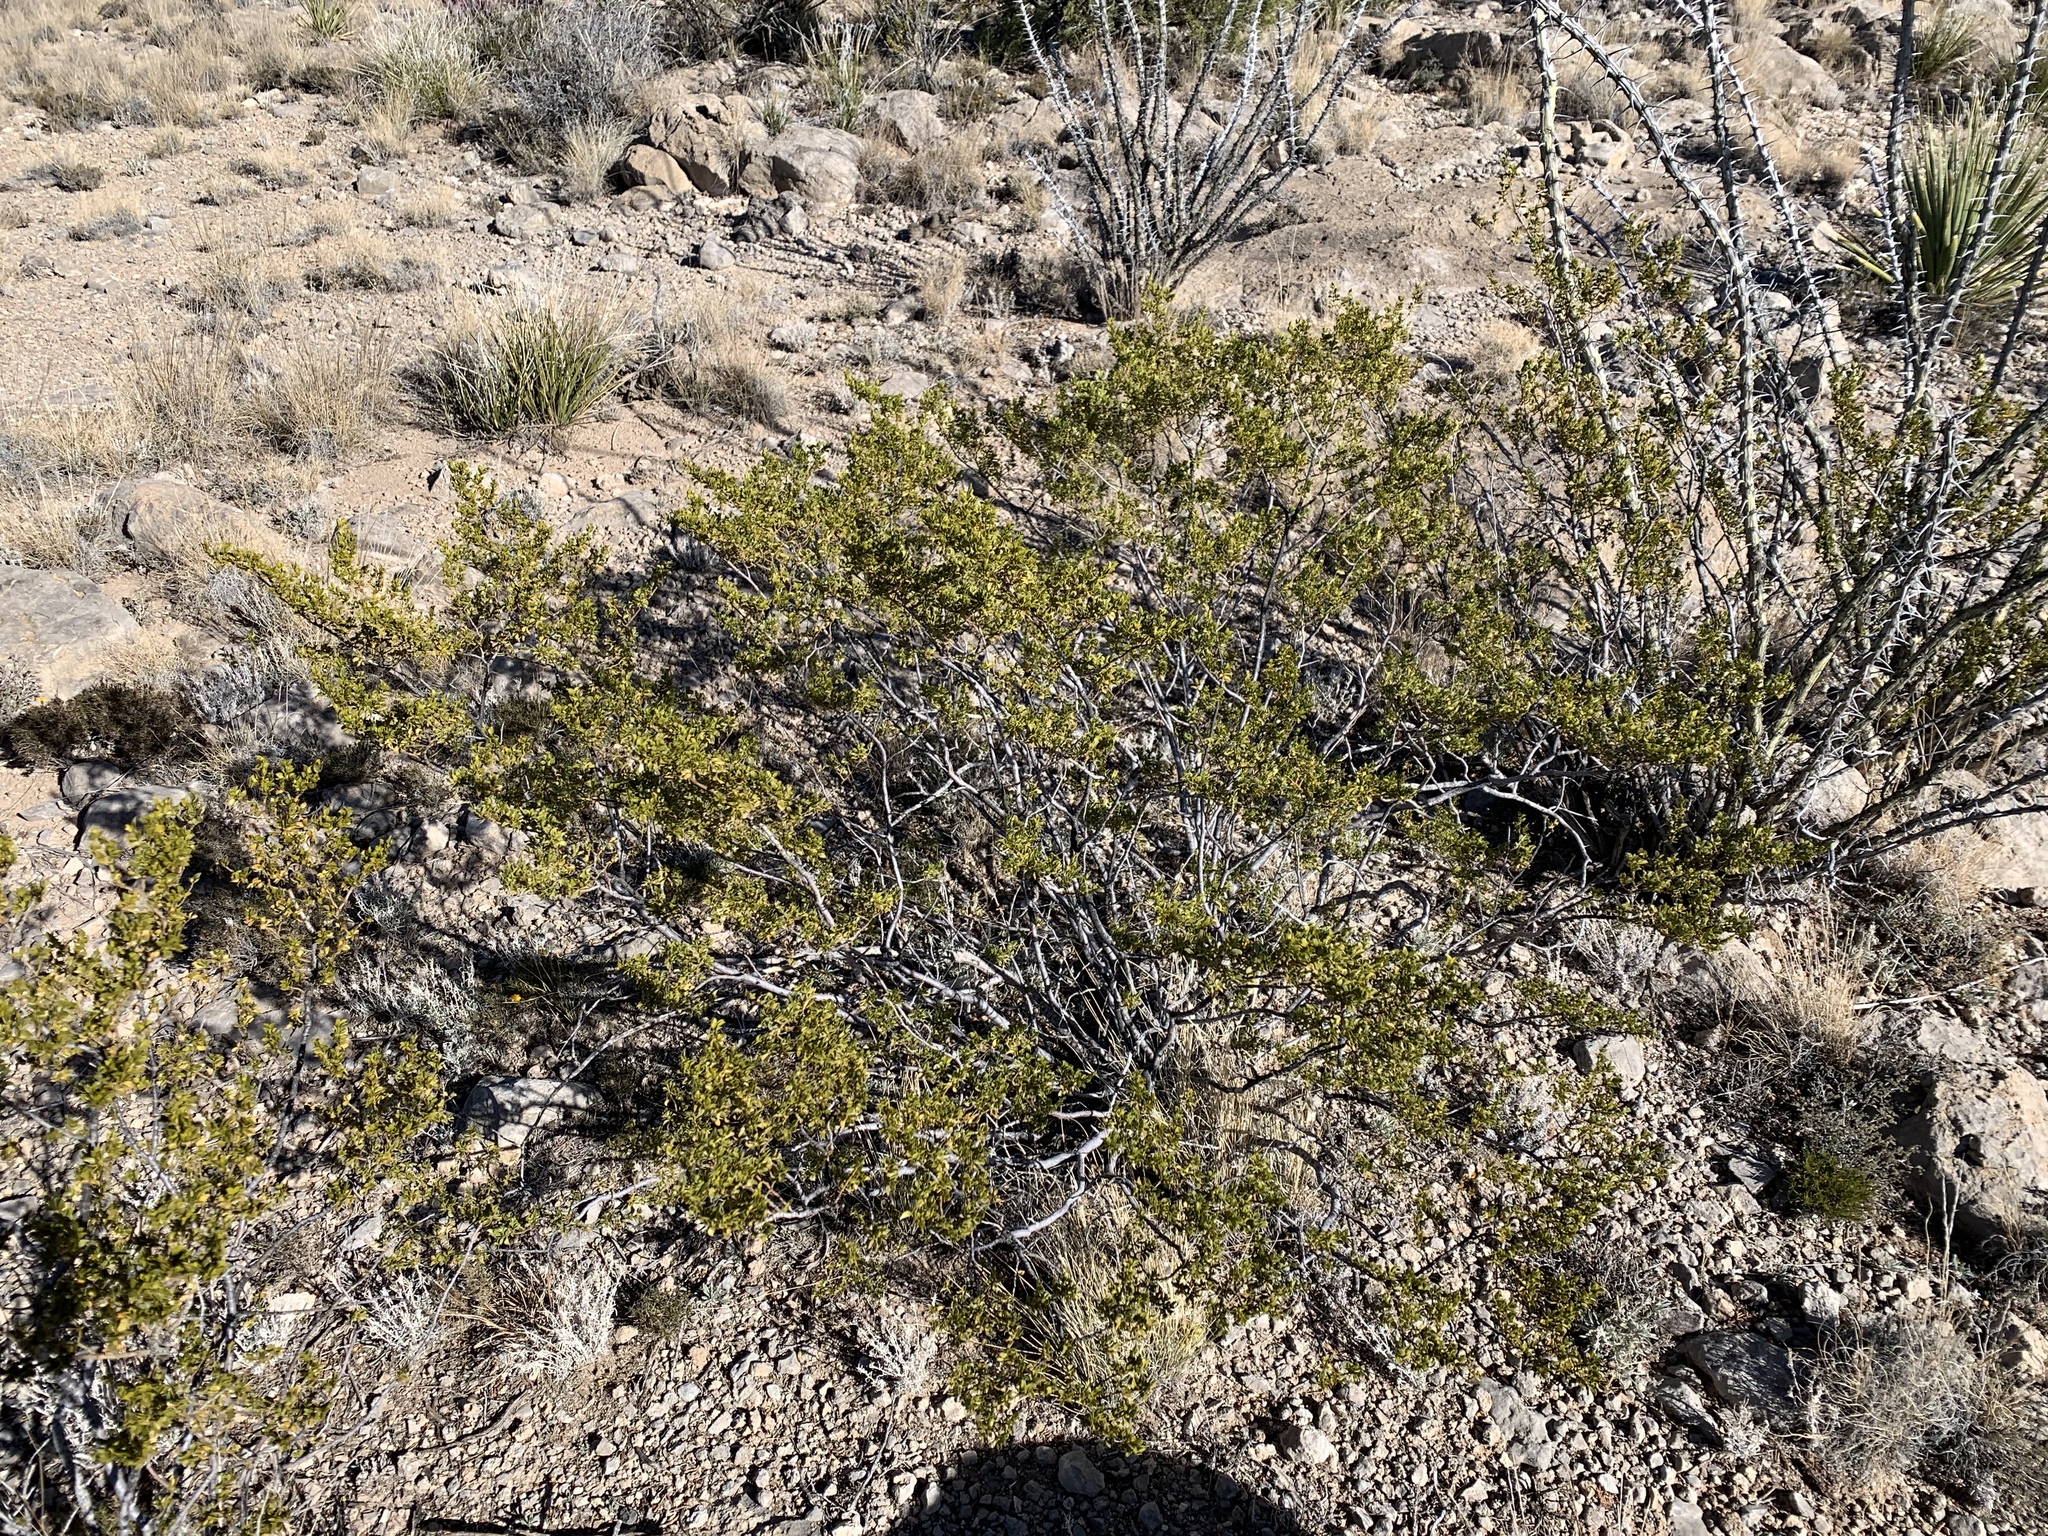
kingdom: Plantae
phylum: Tracheophyta
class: Magnoliopsida
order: Zygophyllales
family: Zygophyllaceae
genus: Larrea
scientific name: Larrea tridentata
